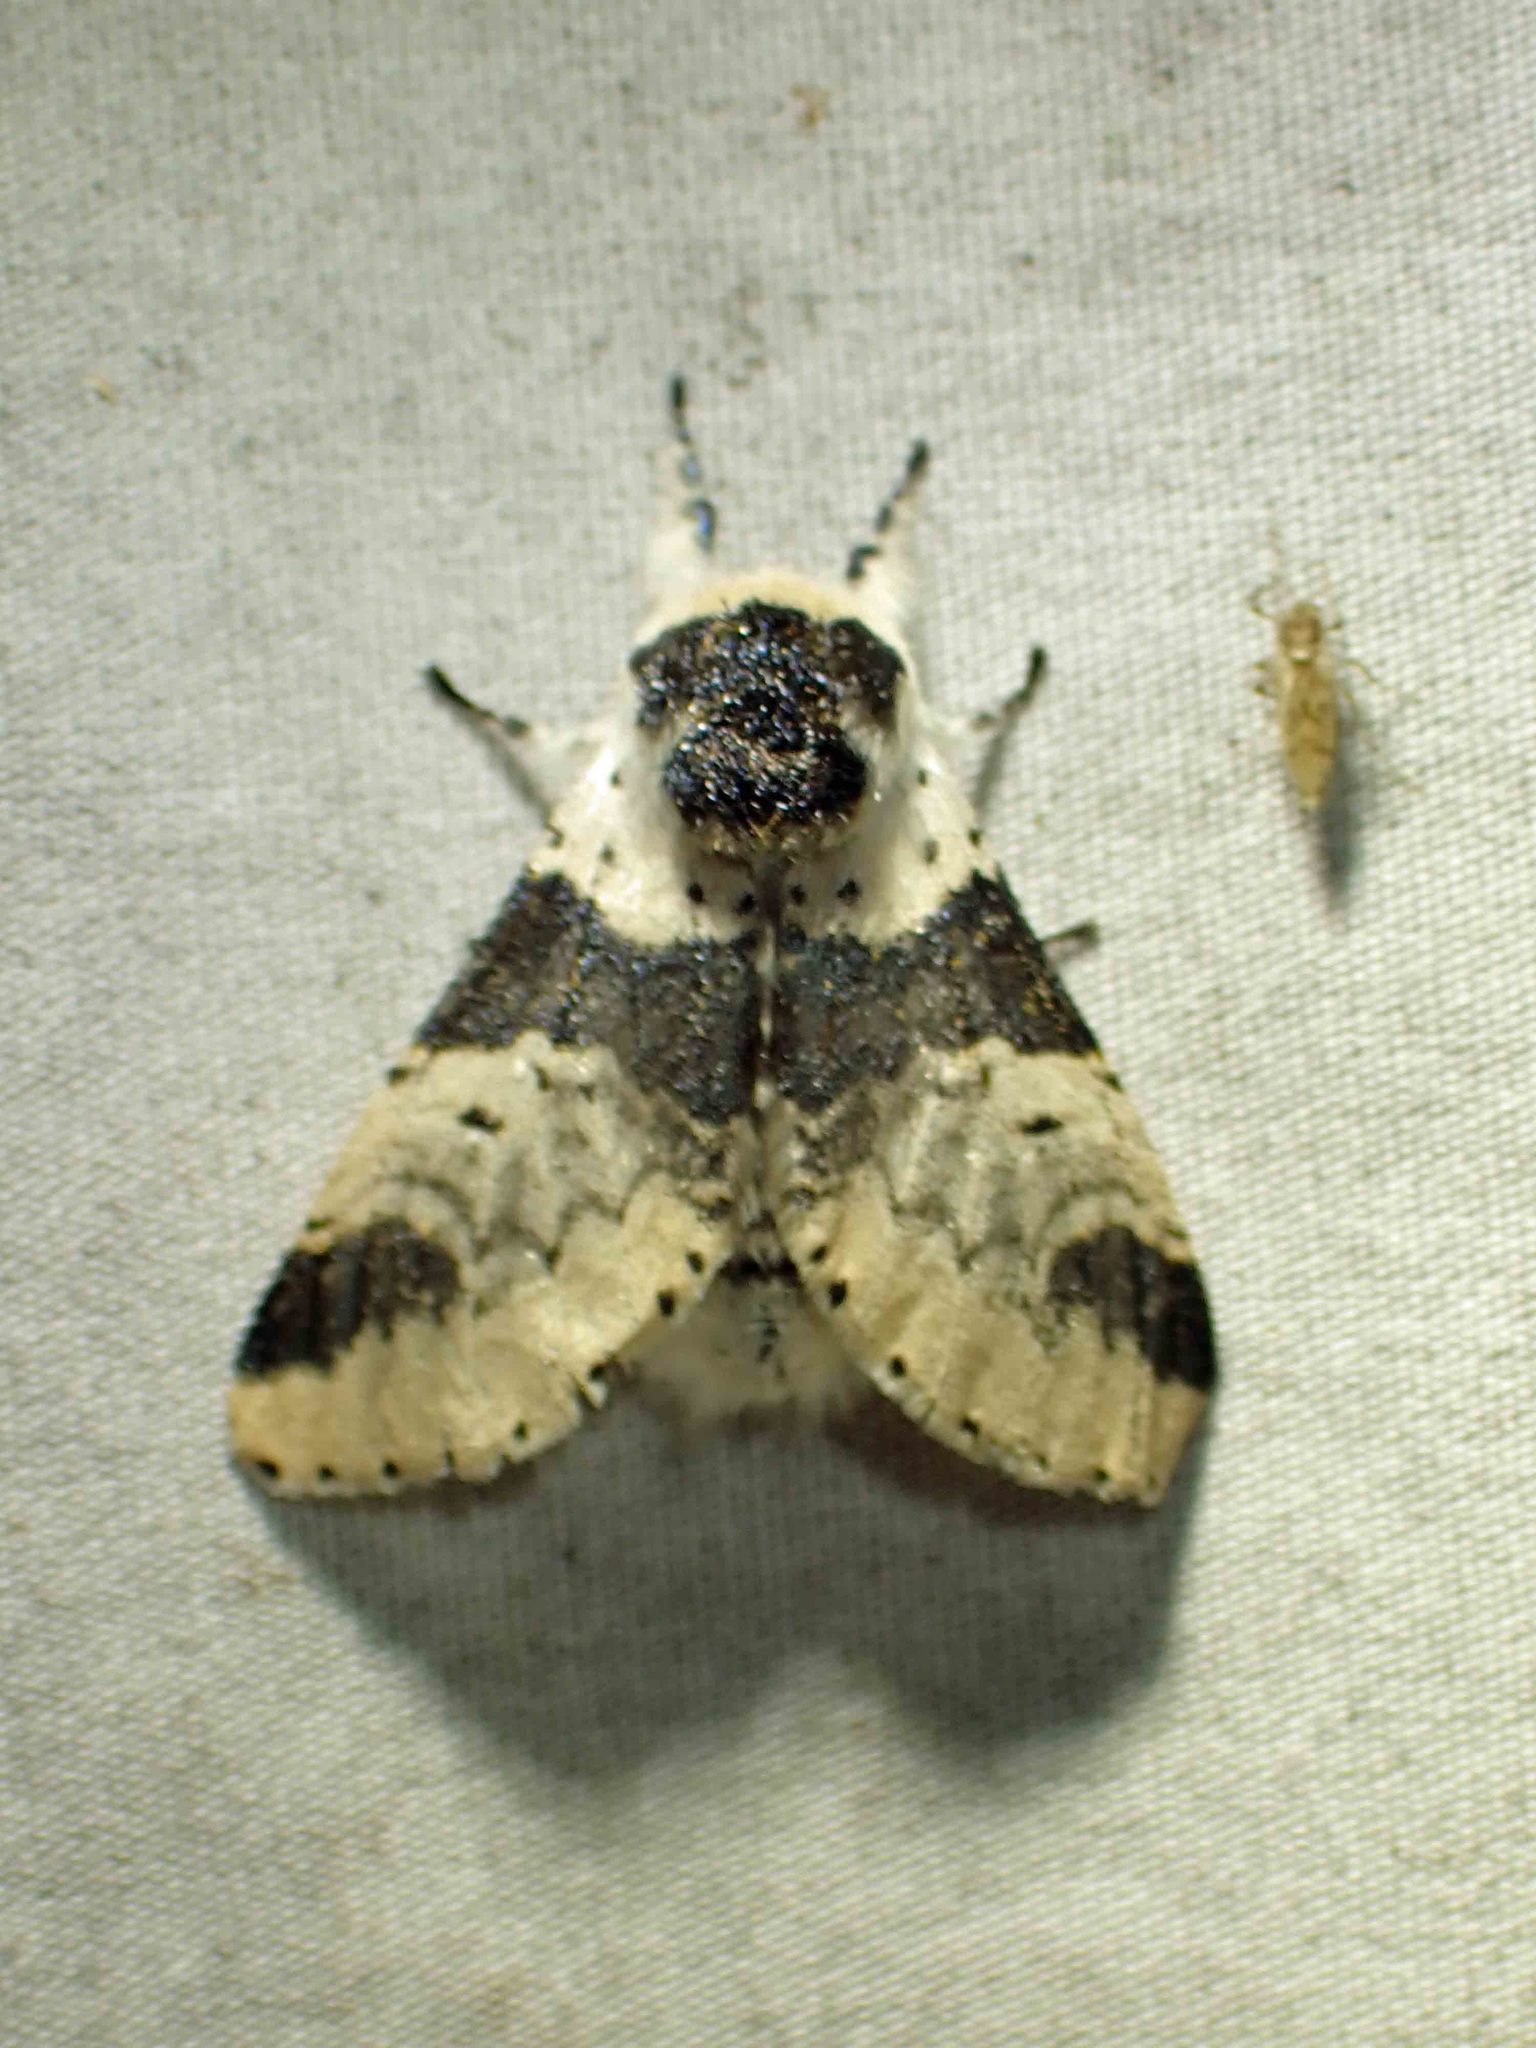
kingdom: Animalia
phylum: Arthropoda
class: Insecta
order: Lepidoptera
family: Notodontidae
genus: Furcula
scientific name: Furcula modesta
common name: Modest furcula moth
